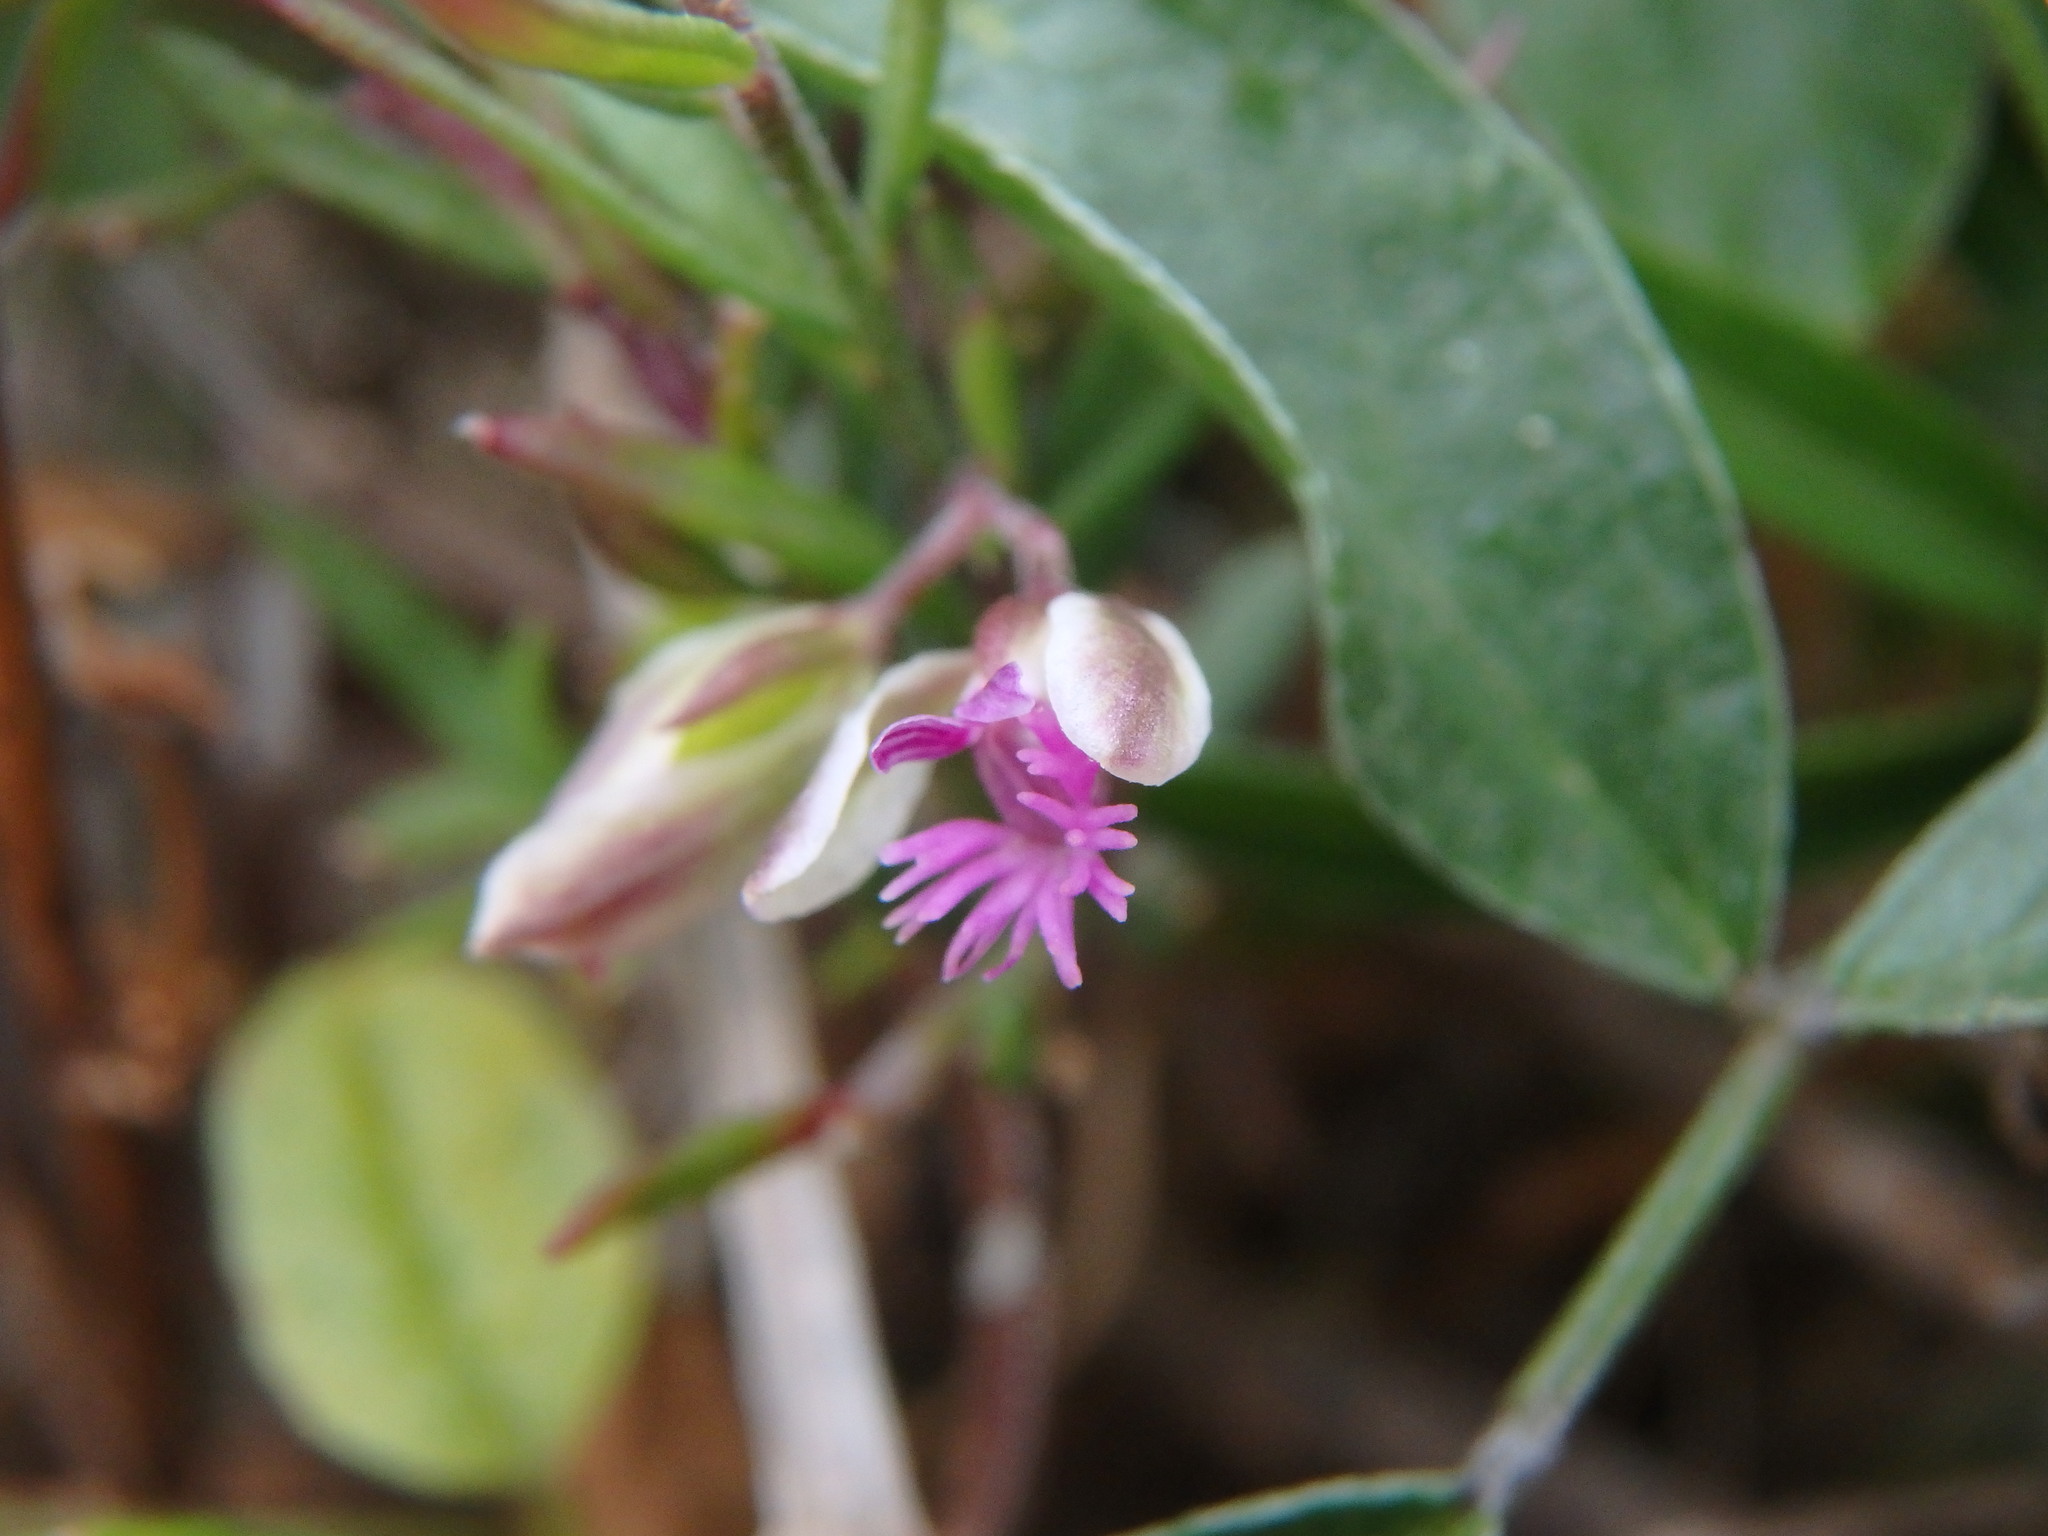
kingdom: Plantae
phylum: Tracheophyta
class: Magnoliopsida
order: Fabales
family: Polygalaceae
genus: Polygala
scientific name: Polygala rupestris
